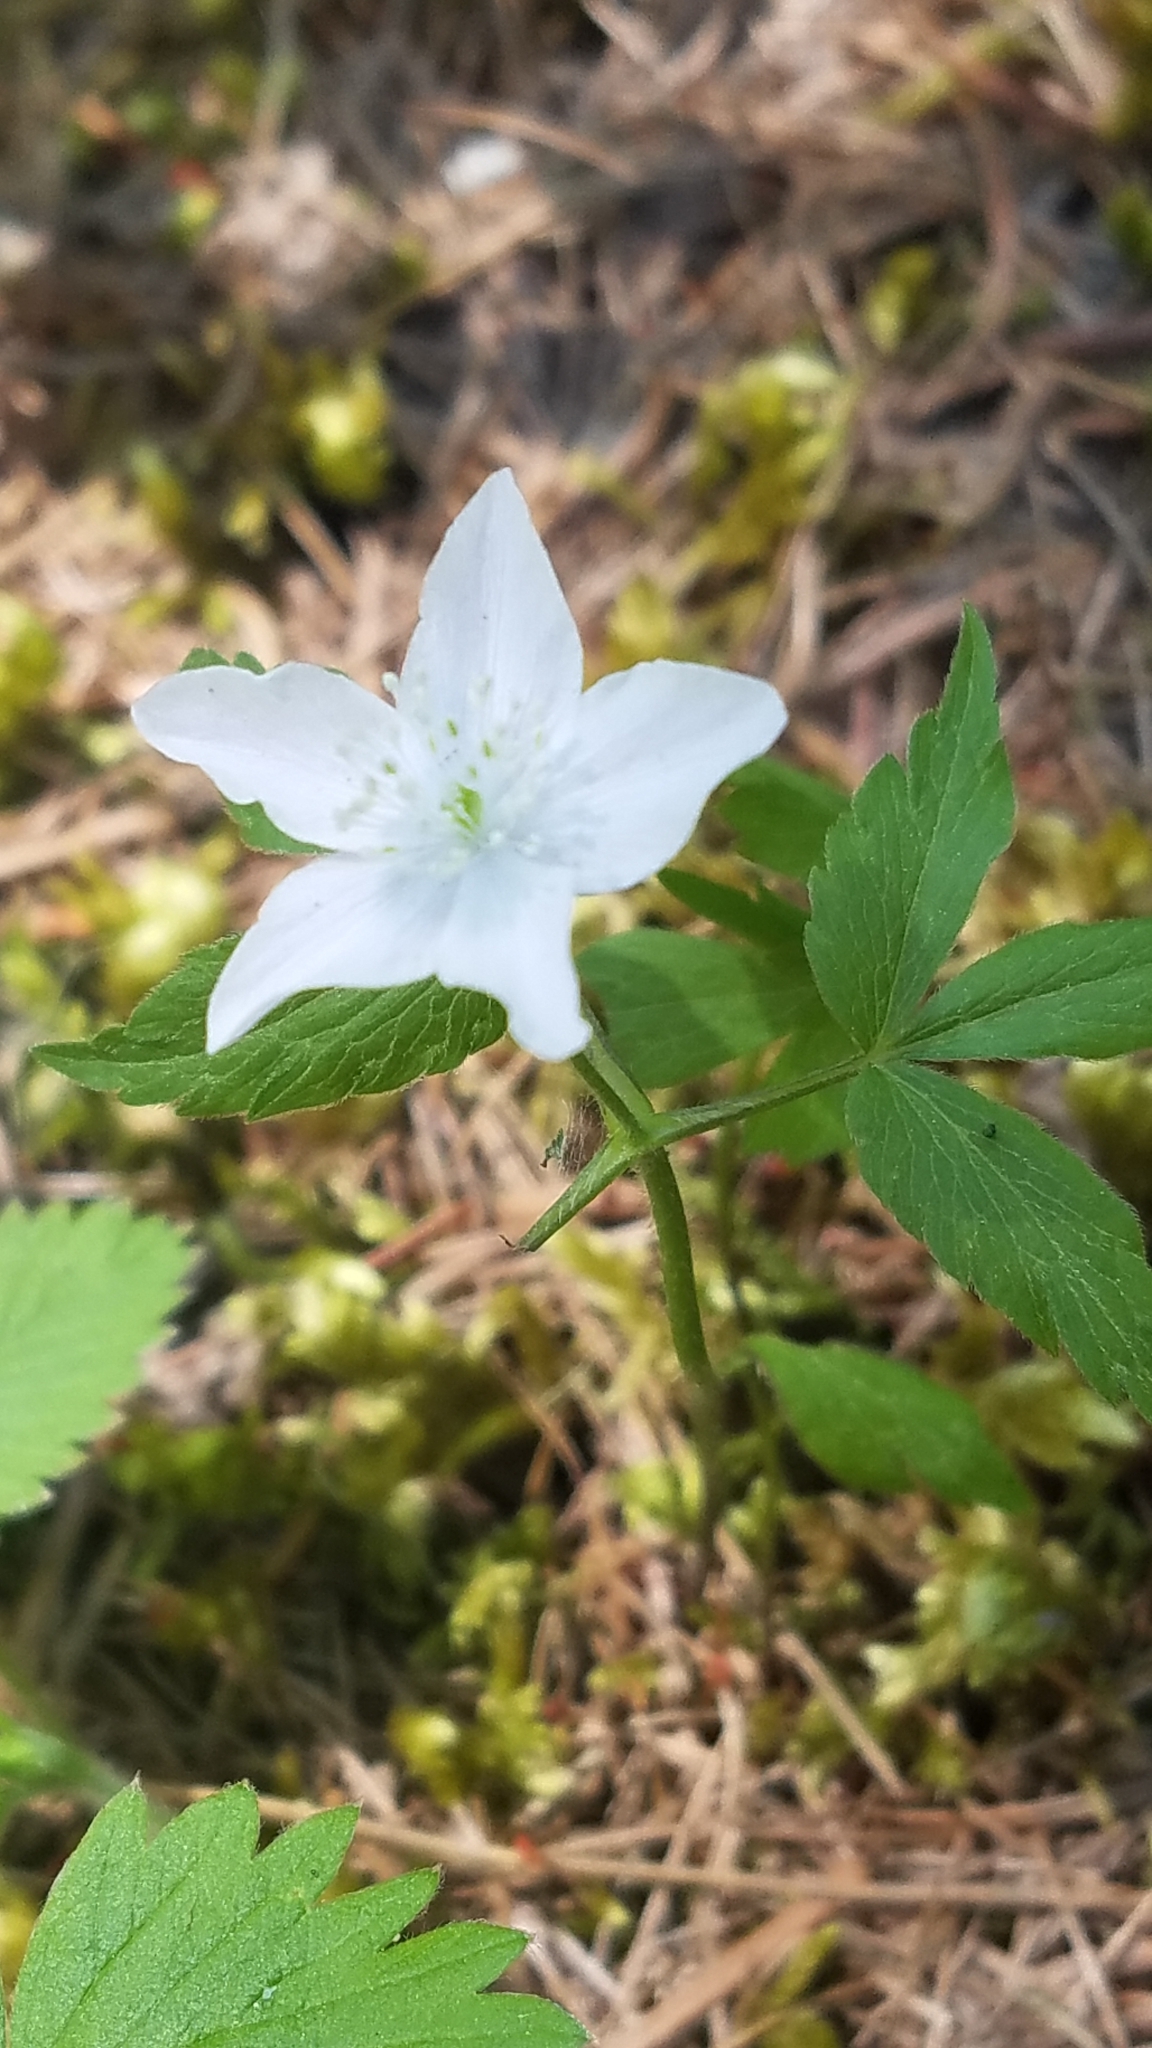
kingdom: Plantae
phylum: Tracheophyta
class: Magnoliopsida
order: Ranunculales
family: Ranunculaceae
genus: Anemone
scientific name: Anemone piperi
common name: Piper's anemone
